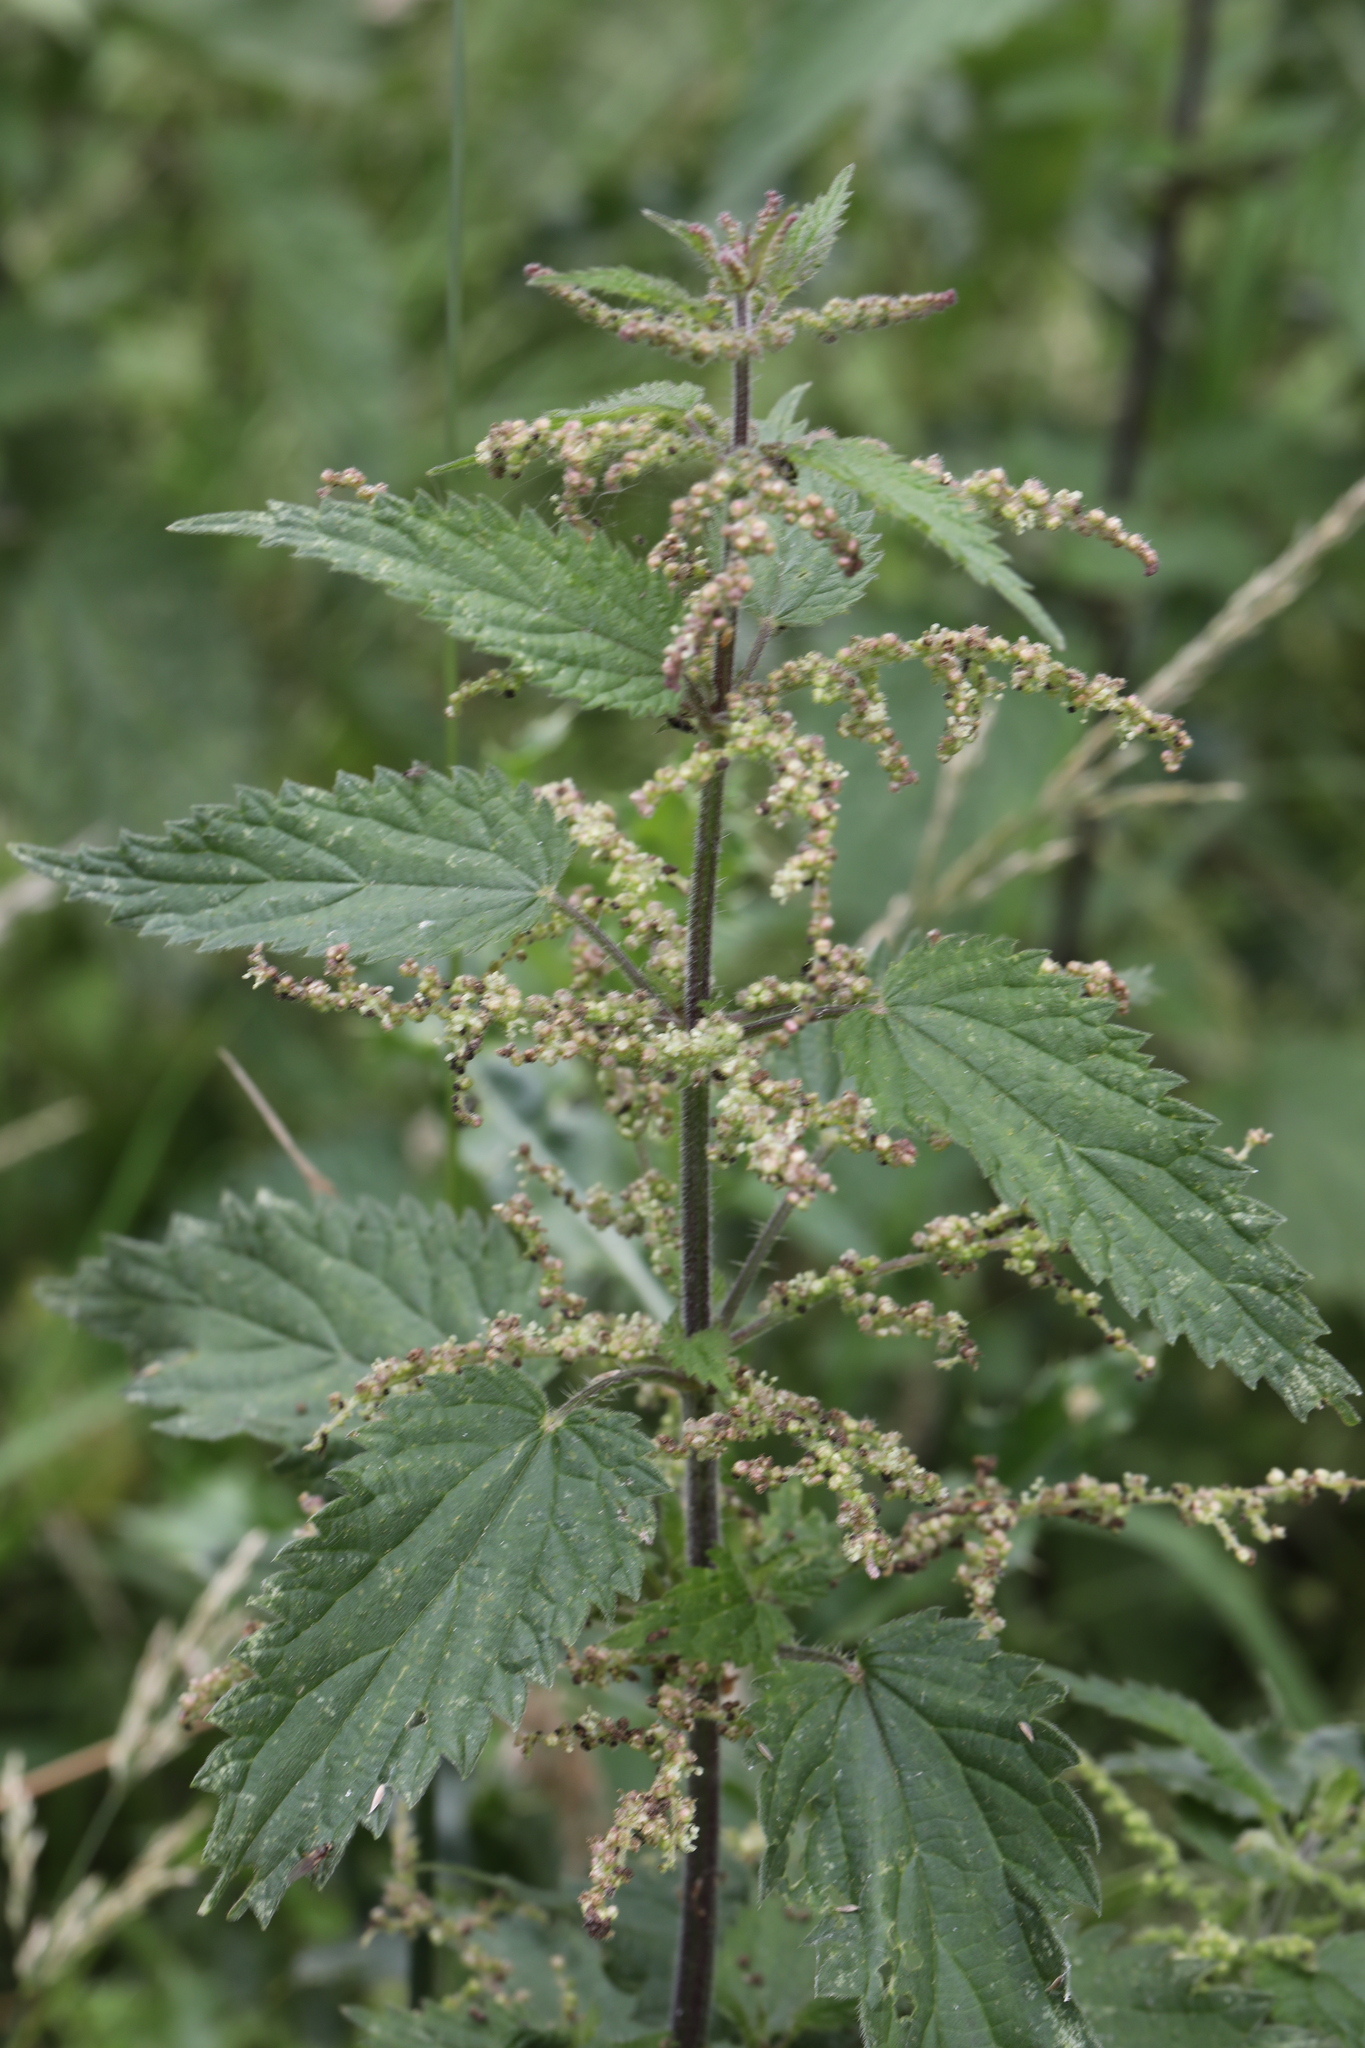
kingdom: Plantae
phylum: Tracheophyta
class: Magnoliopsida
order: Rosales
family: Urticaceae
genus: Urtica
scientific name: Urtica dioica
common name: Common nettle
